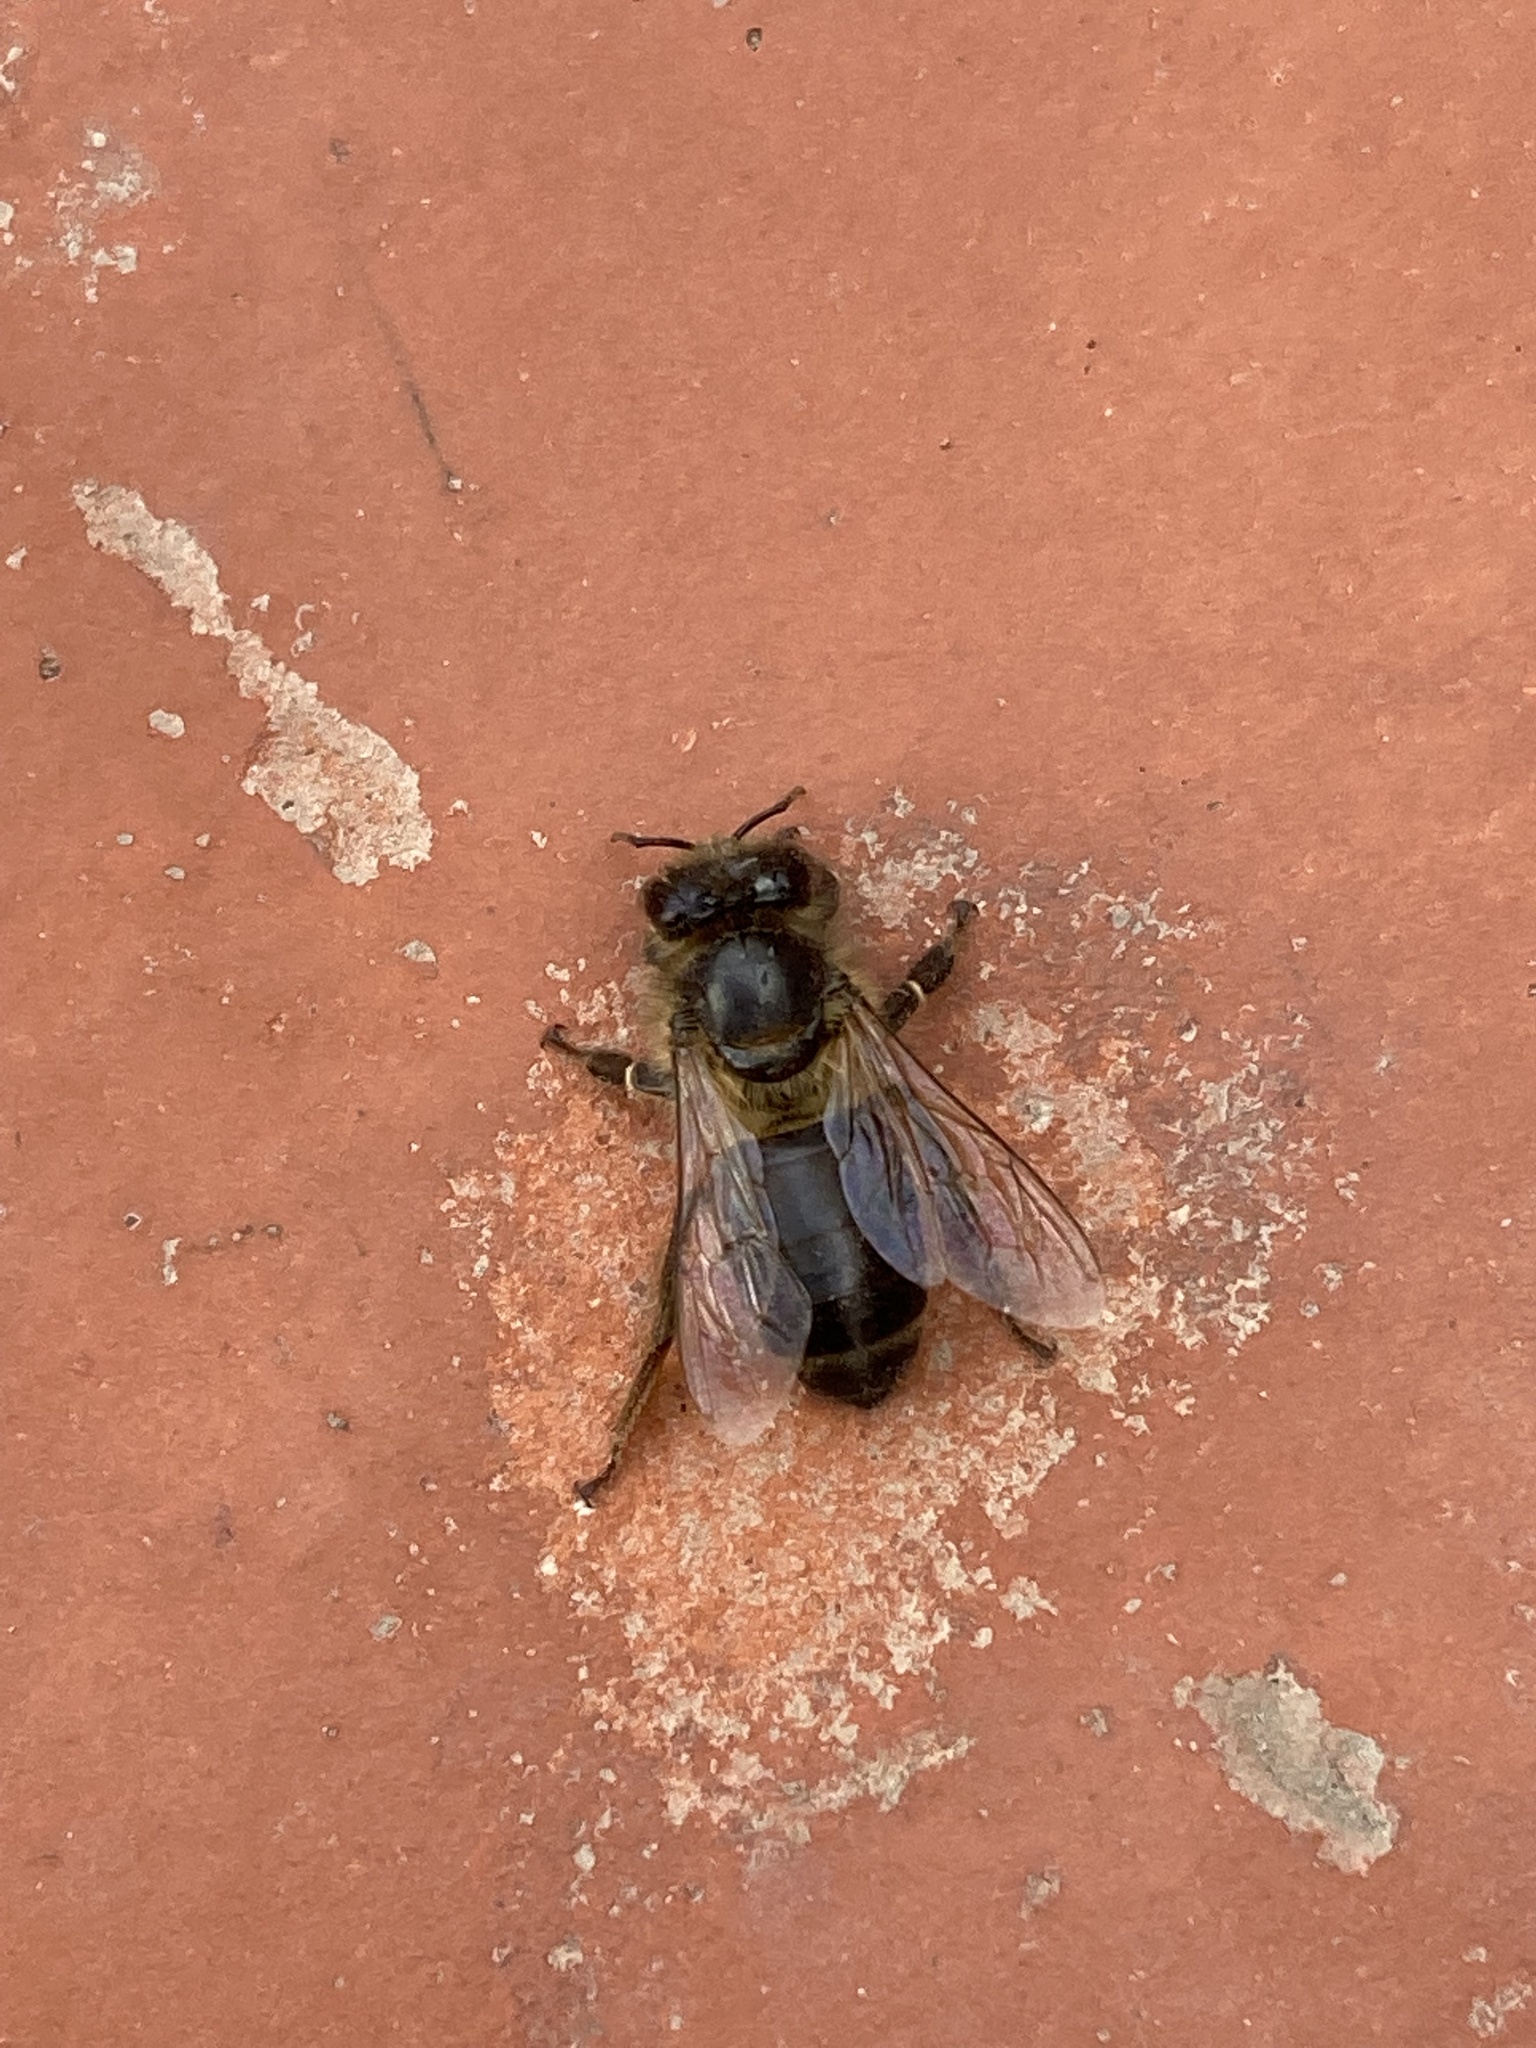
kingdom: Animalia
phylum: Arthropoda
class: Insecta
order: Hymenoptera
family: Apidae
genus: Apis
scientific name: Apis mellifera
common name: Honey bee
